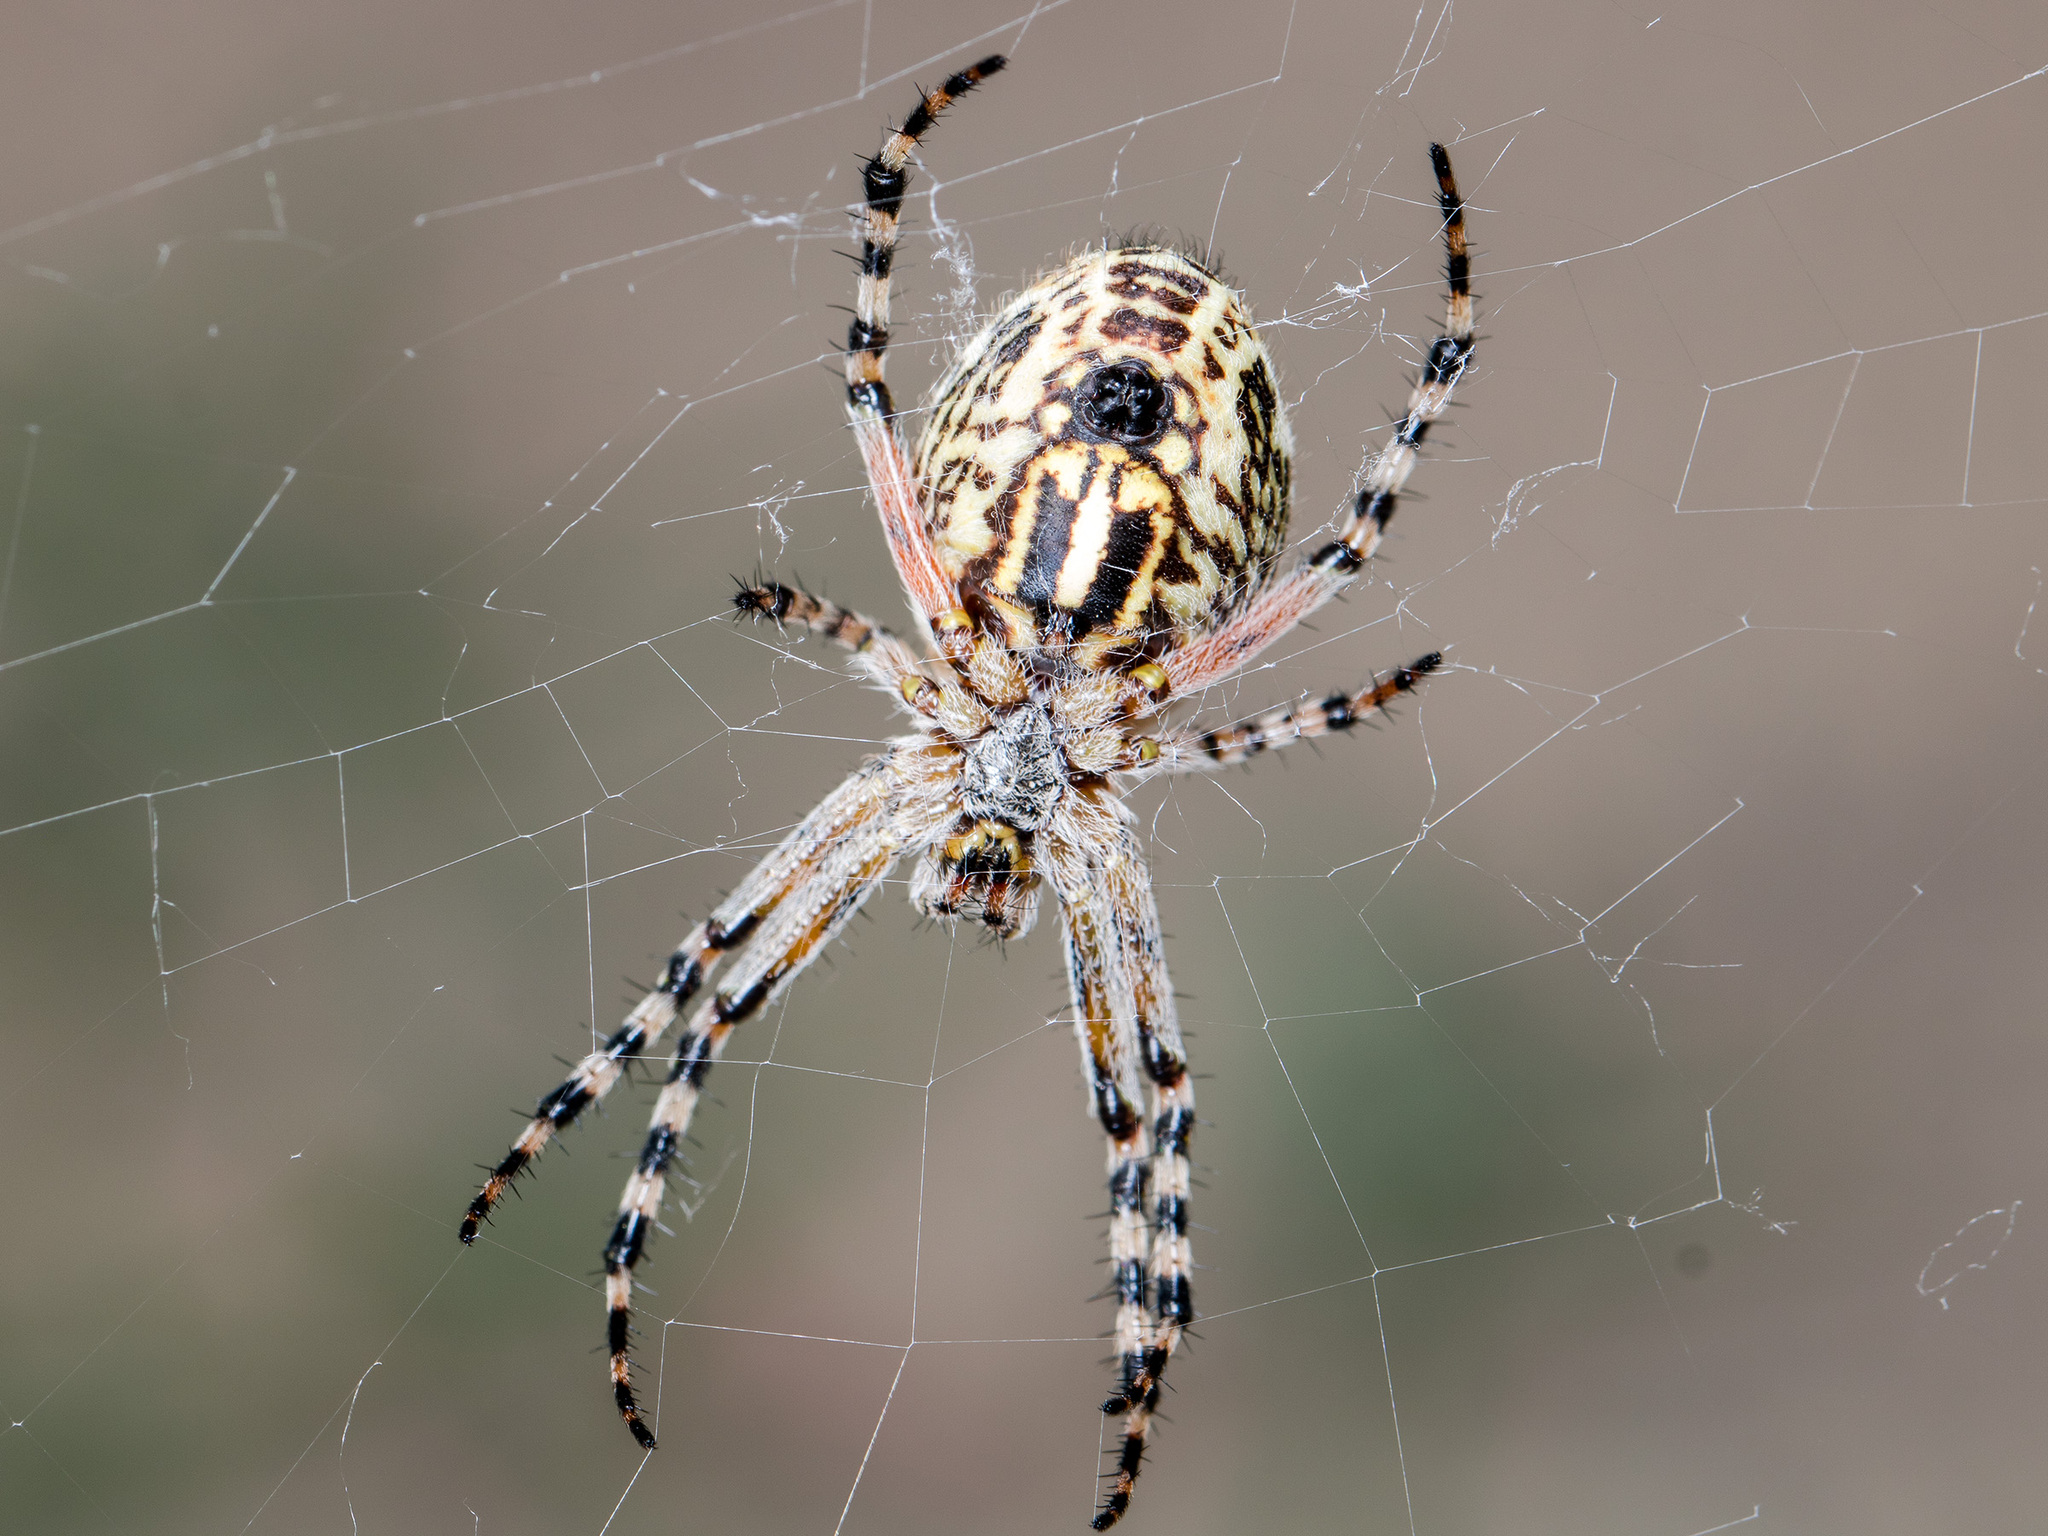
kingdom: Animalia
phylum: Arthropoda
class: Arachnida
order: Araneae
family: Araneidae
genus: Aculepeira
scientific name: Aculepeira armida
